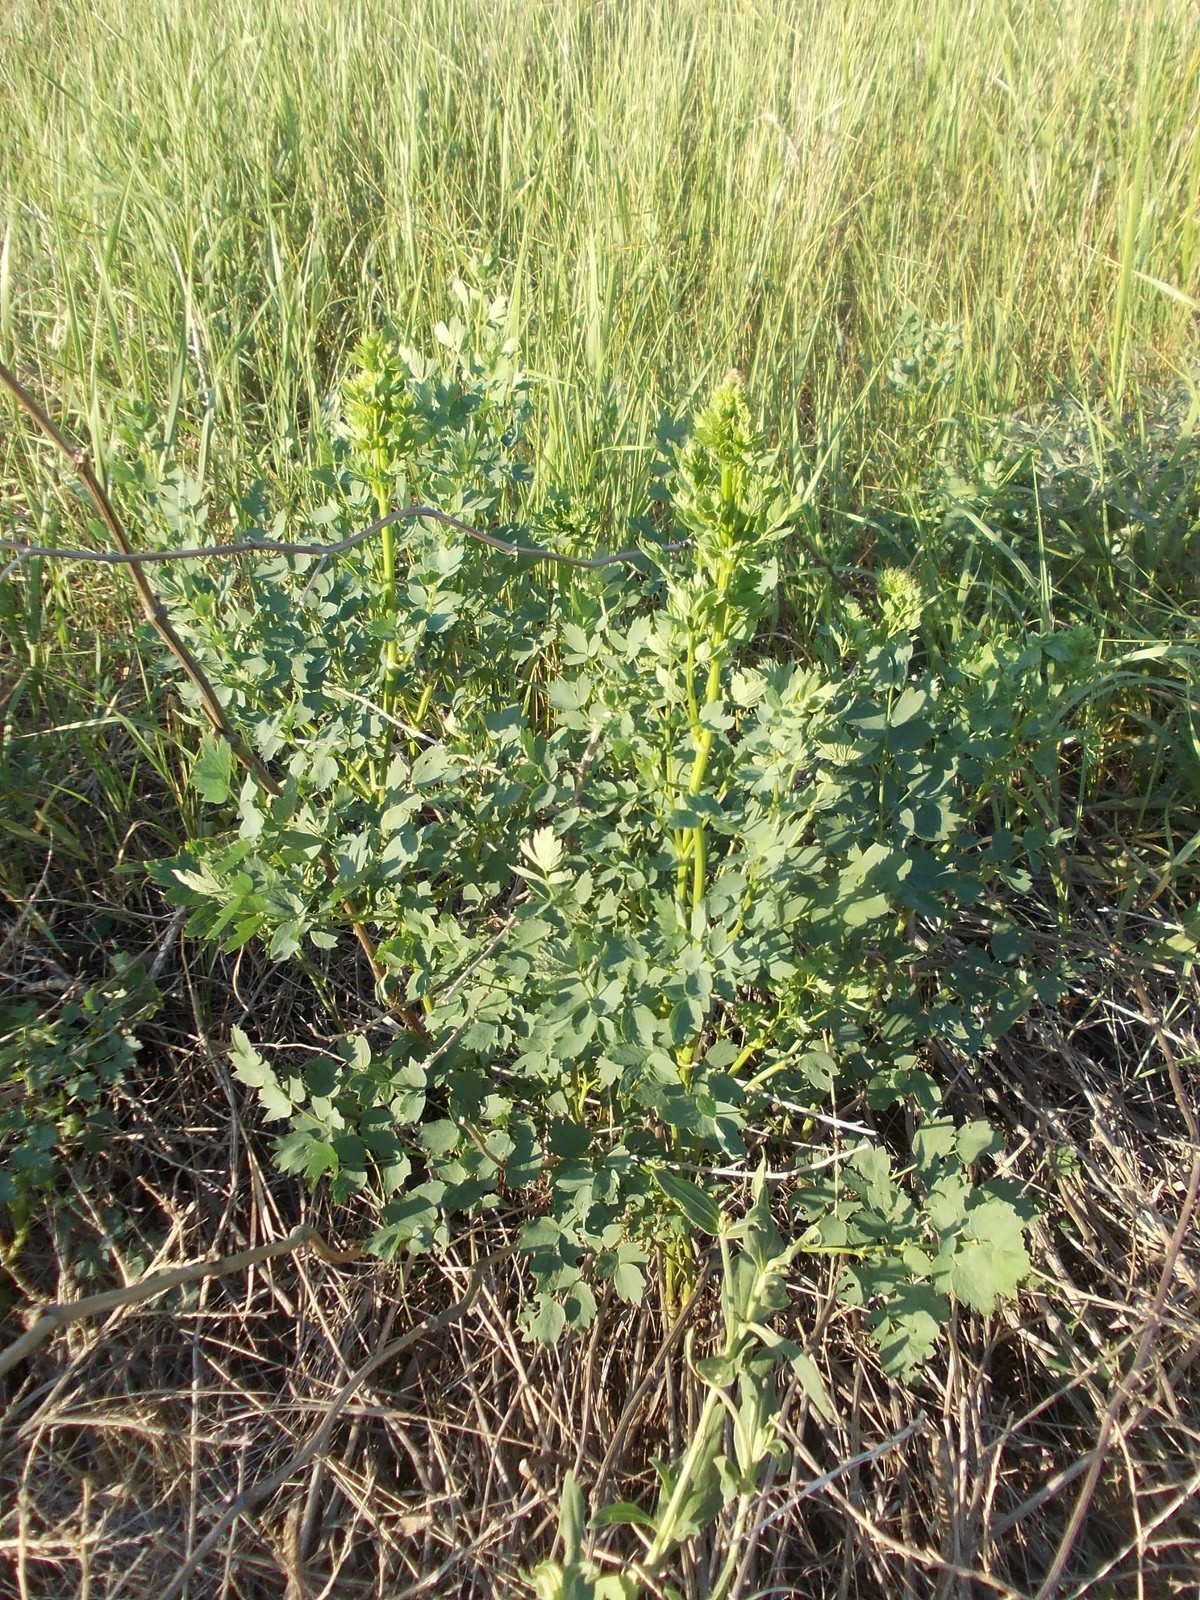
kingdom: Plantae
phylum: Tracheophyta
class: Magnoliopsida
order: Ranunculales
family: Ranunculaceae
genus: Thalictrum
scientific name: Thalictrum minus
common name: Lesser meadow-rue
